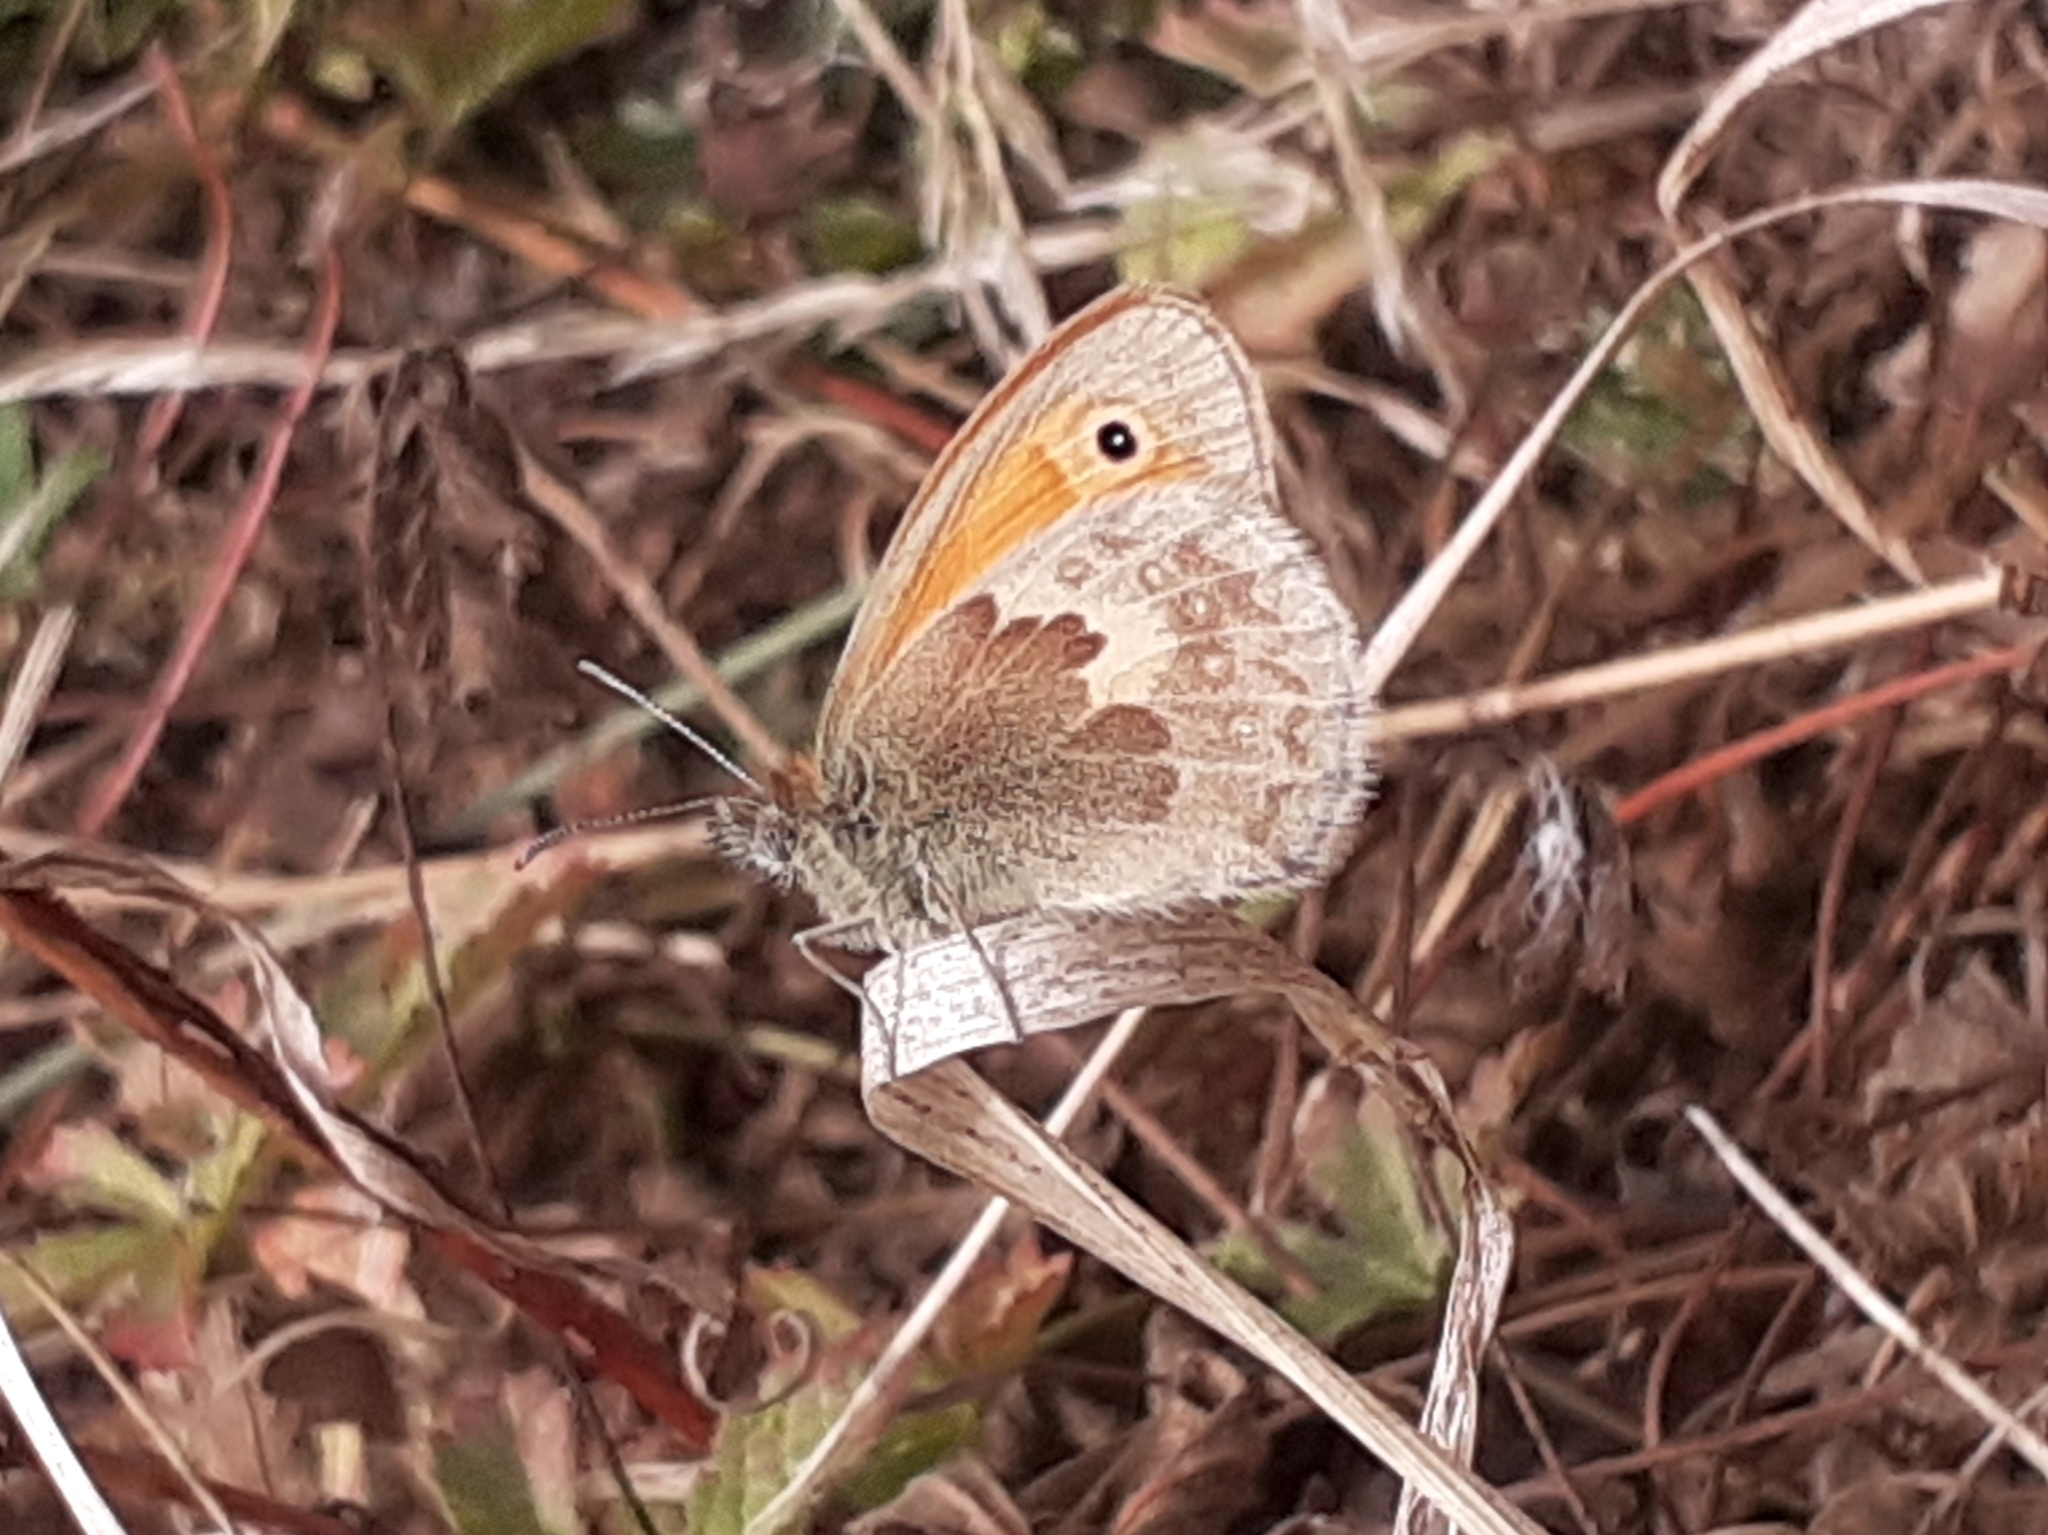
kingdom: Animalia
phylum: Arthropoda
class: Insecta
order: Lepidoptera
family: Nymphalidae
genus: Coenonympha
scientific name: Coenonympha pamphilus
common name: Small heath
